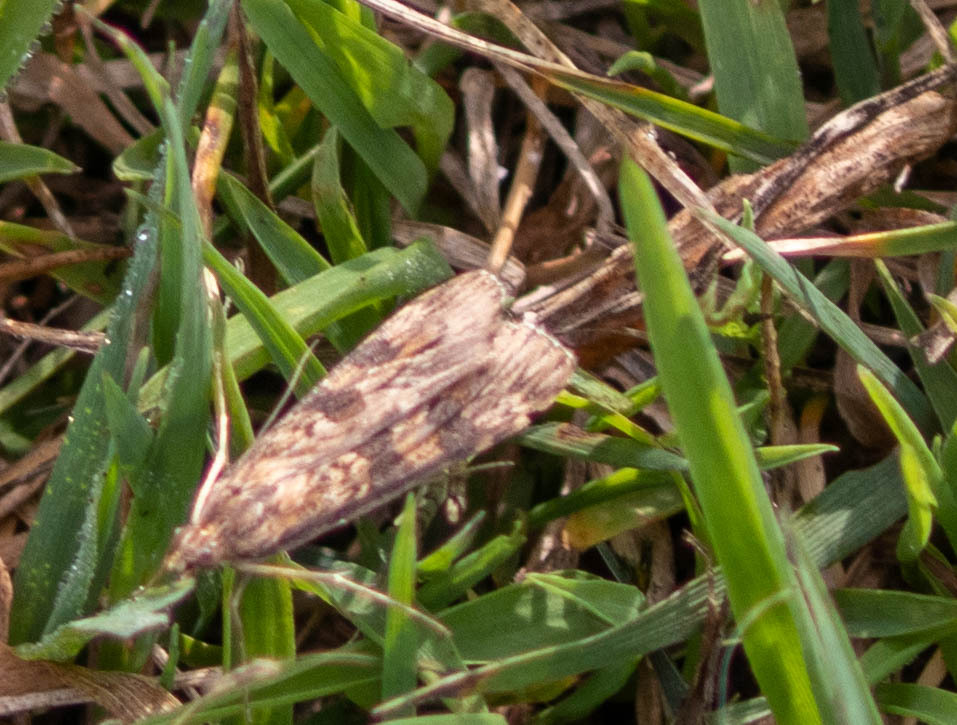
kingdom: Animalia
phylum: Arthropoda
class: Insecta
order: Lepidoptera
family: Crambidae
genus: Nomophila
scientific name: Nomophila nearctica
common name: American rush veneer
